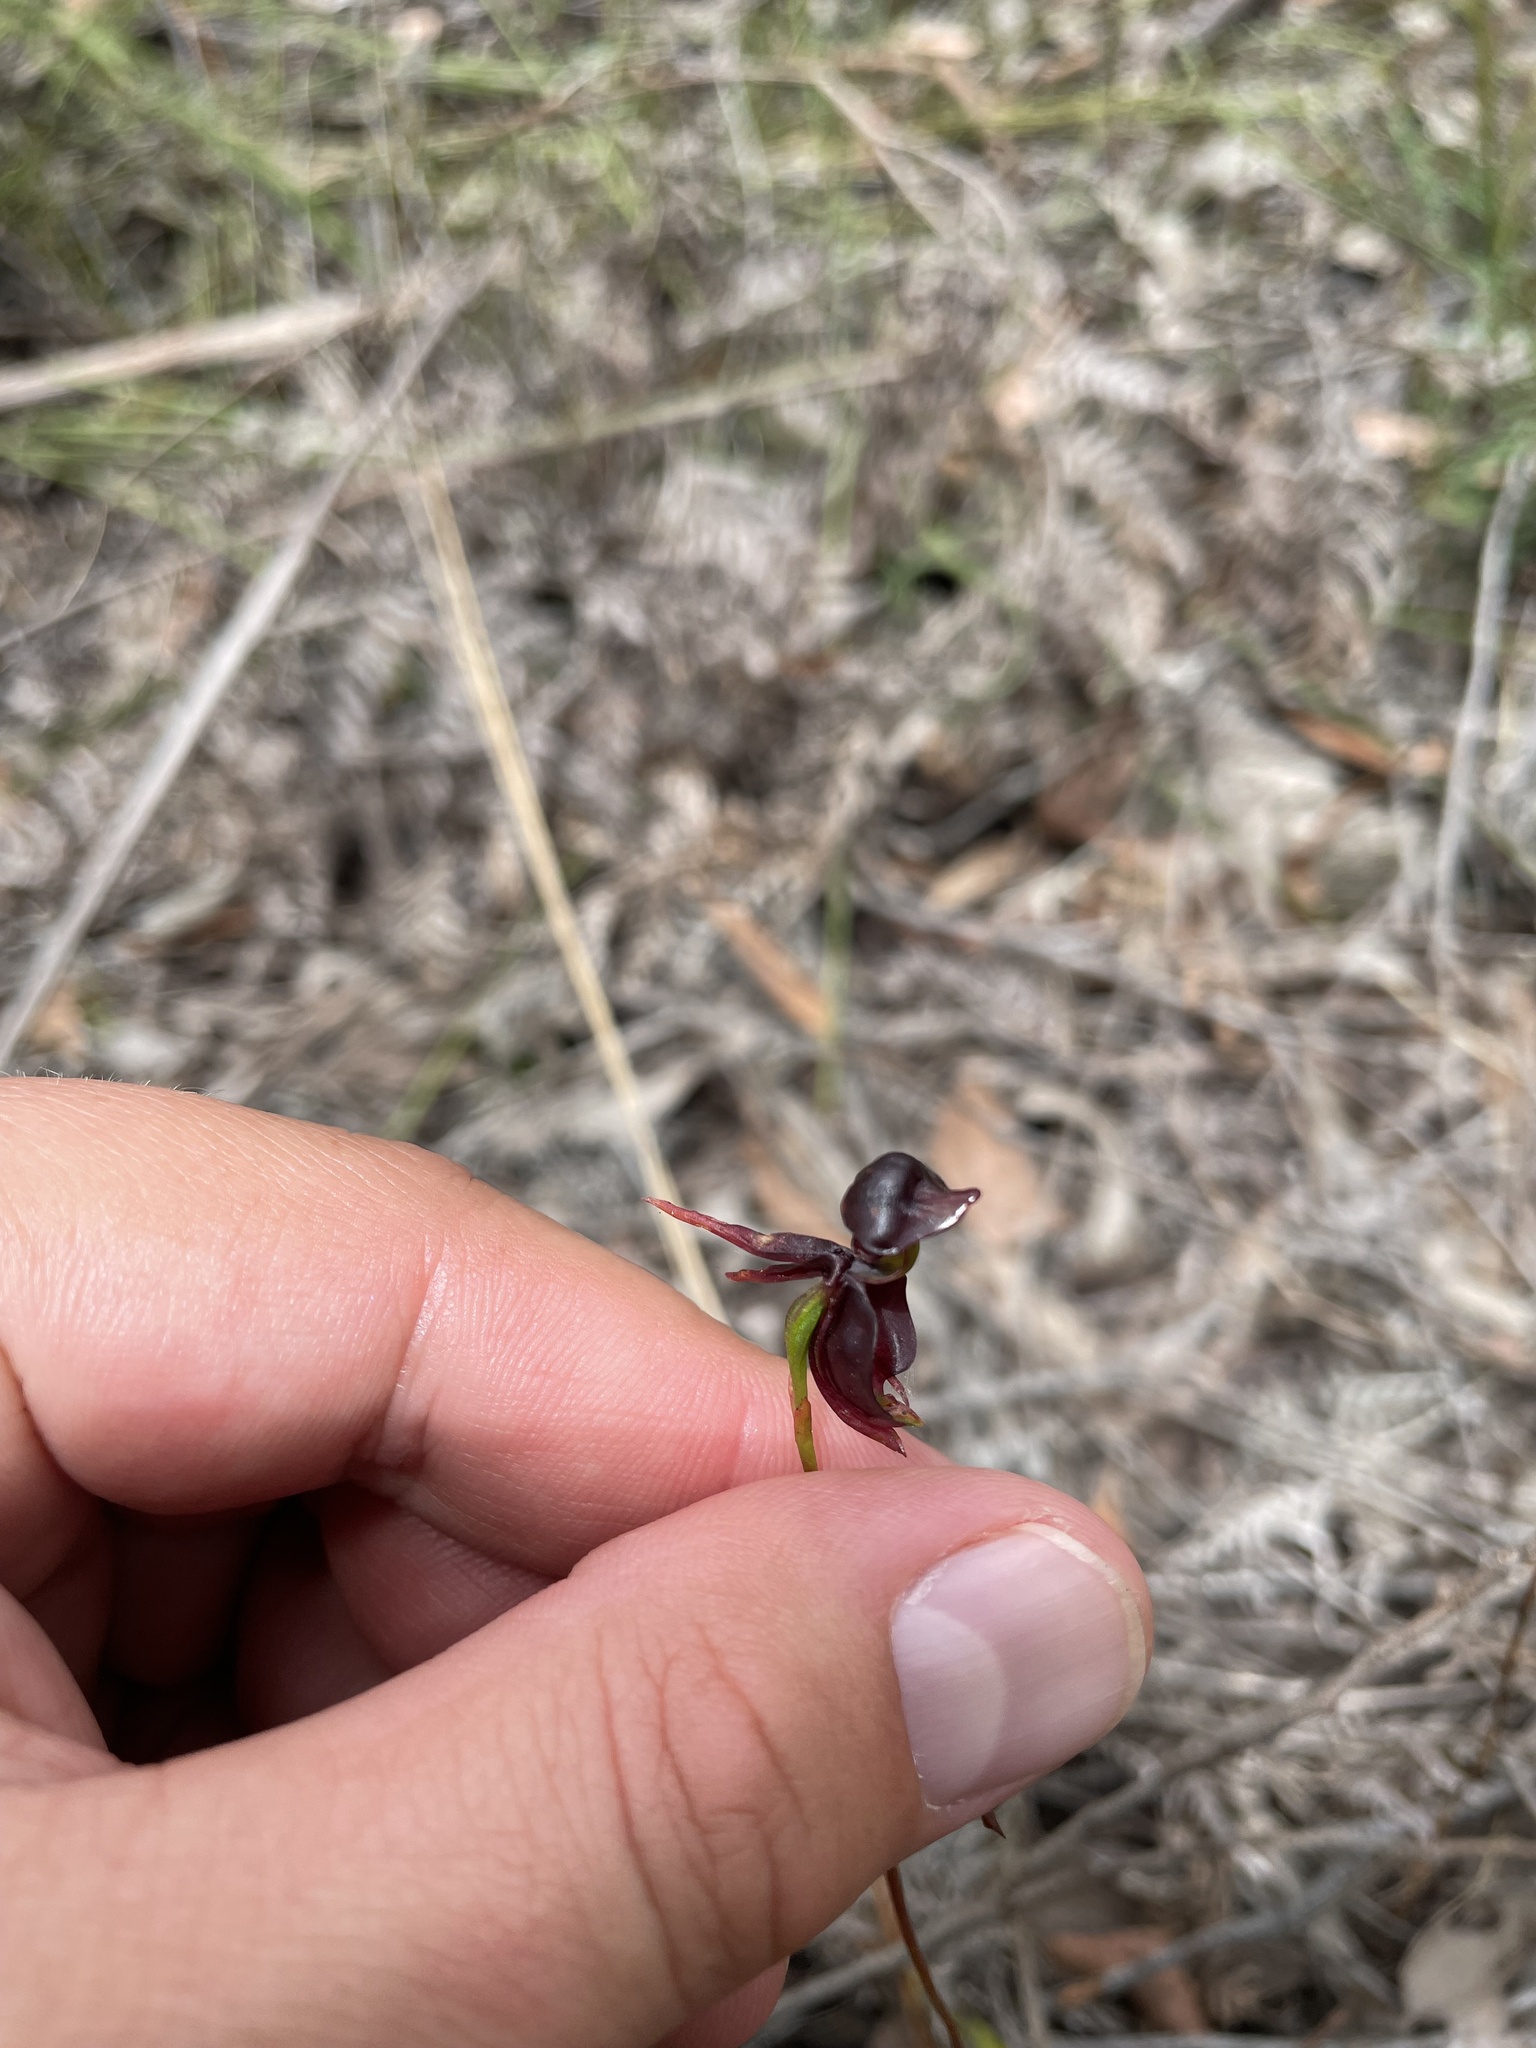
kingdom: Plantae
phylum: Tracheophyta
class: Liliopsida
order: Asparagales
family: Orchidaceae
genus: Caleana
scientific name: Caleana major
